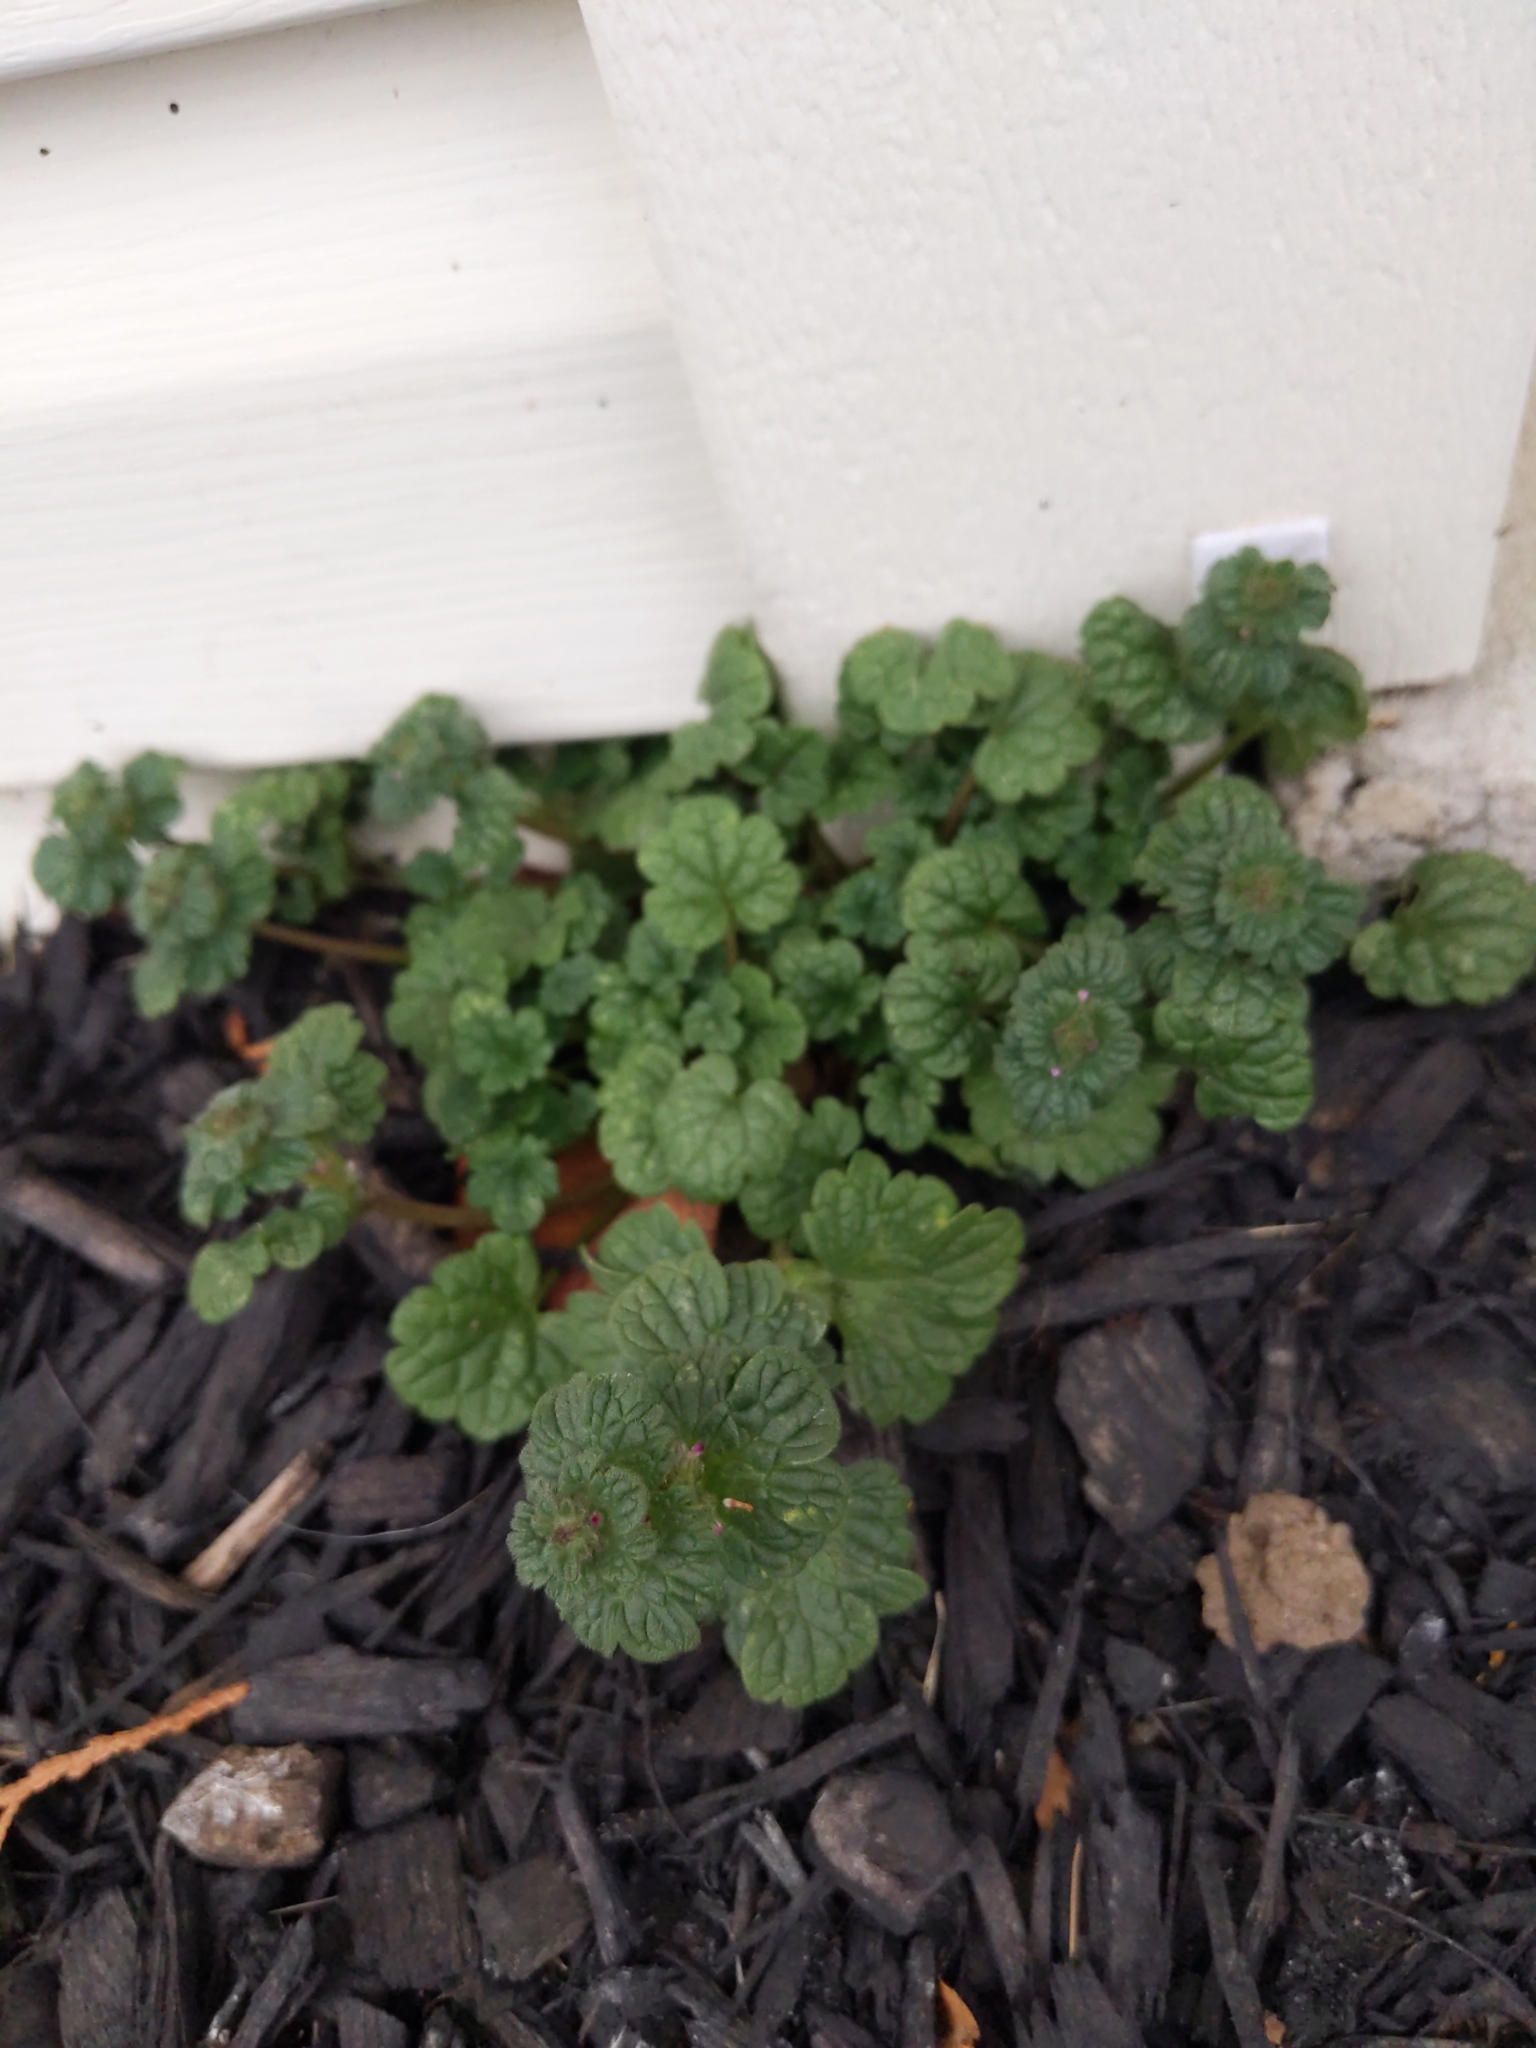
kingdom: Plantae
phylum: Tracheophyta
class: Magnoliopsida
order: Lamiales
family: Lamiaceae
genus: Lamium
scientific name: Lamium amplexicaule
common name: Henbit dead-nettle
